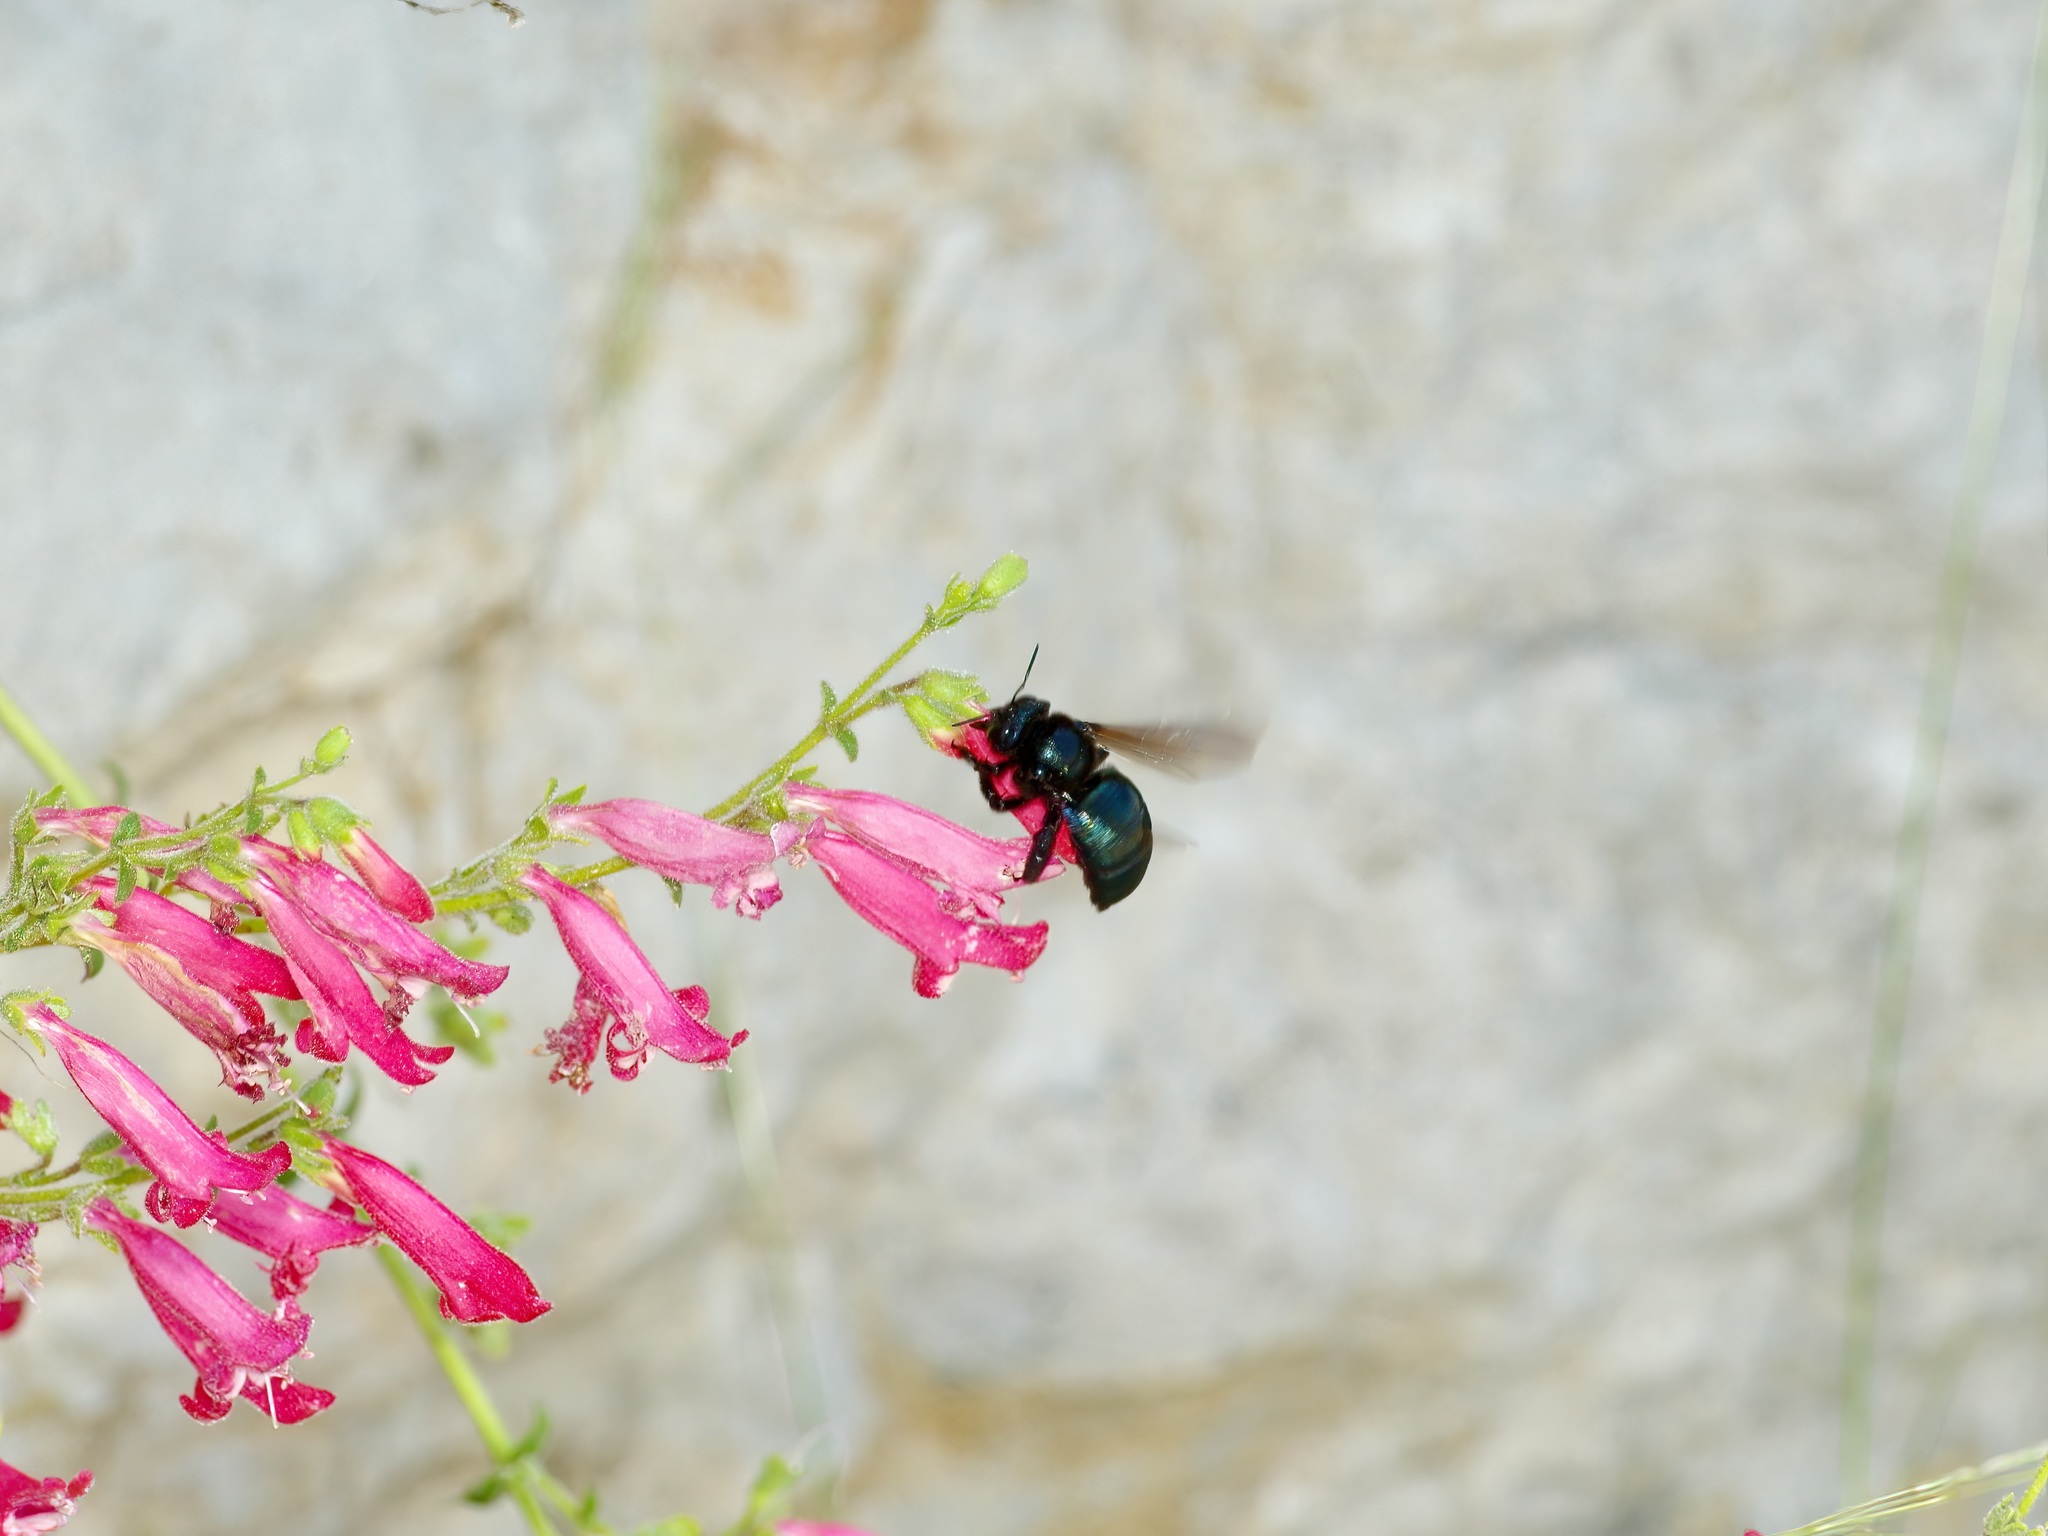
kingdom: Animalia
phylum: Arthropoda
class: Insecta
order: Hymenoptera
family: Apidae
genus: Xylocopa
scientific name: Xylocopa californica
